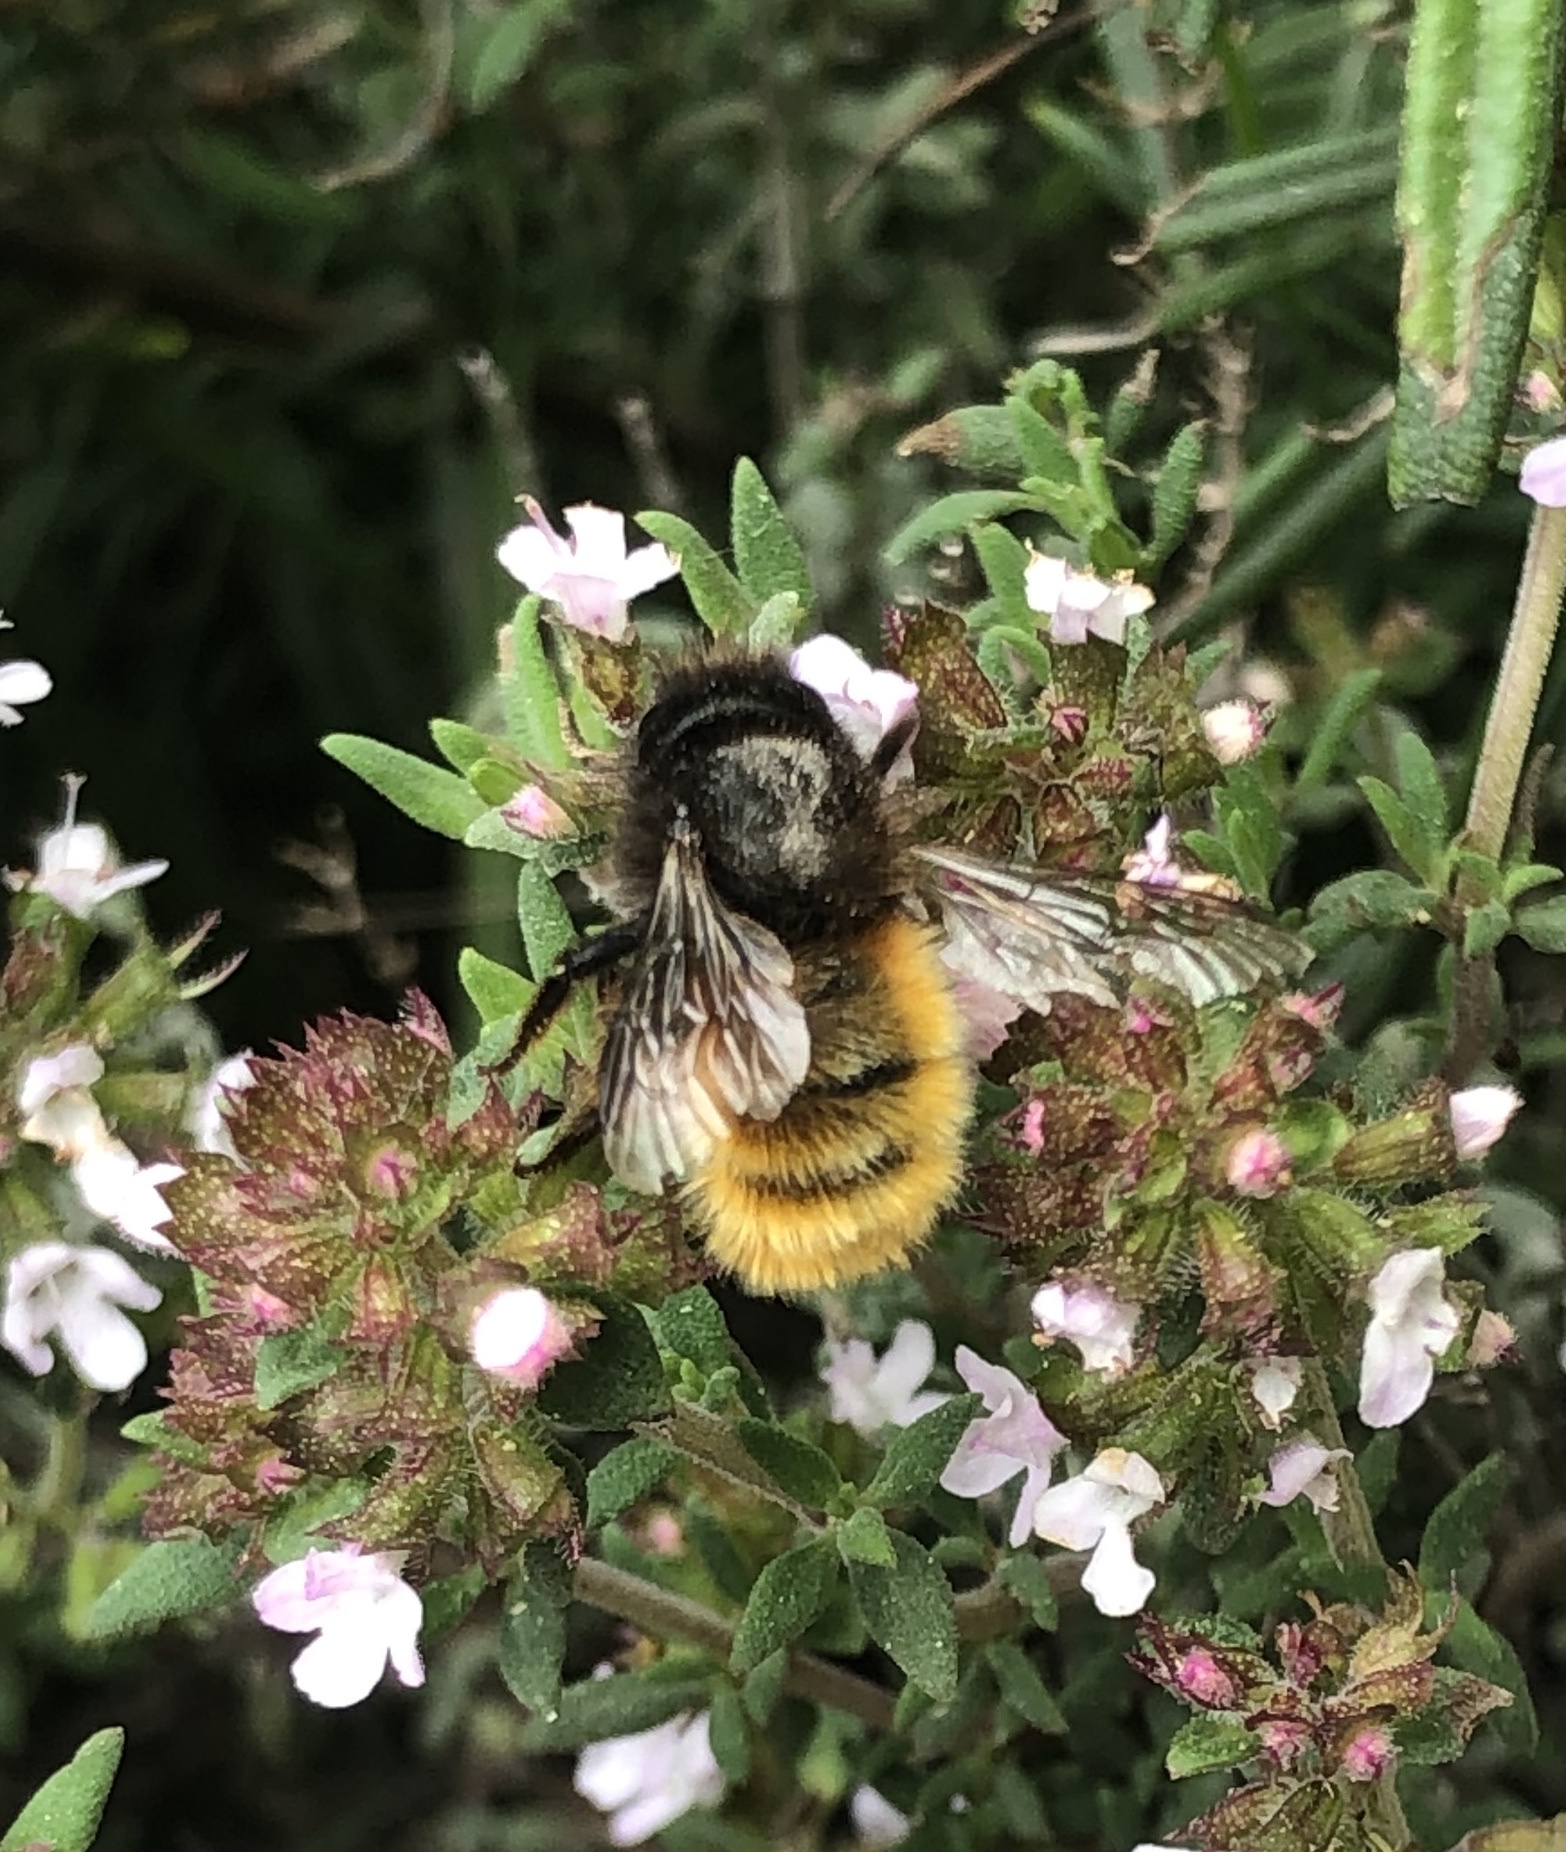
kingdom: Animalia
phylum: Arthropoda
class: Insecta
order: Hymenoptera
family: Megachilidae
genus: Osmia
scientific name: Osmia cornuta
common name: Mason bee
